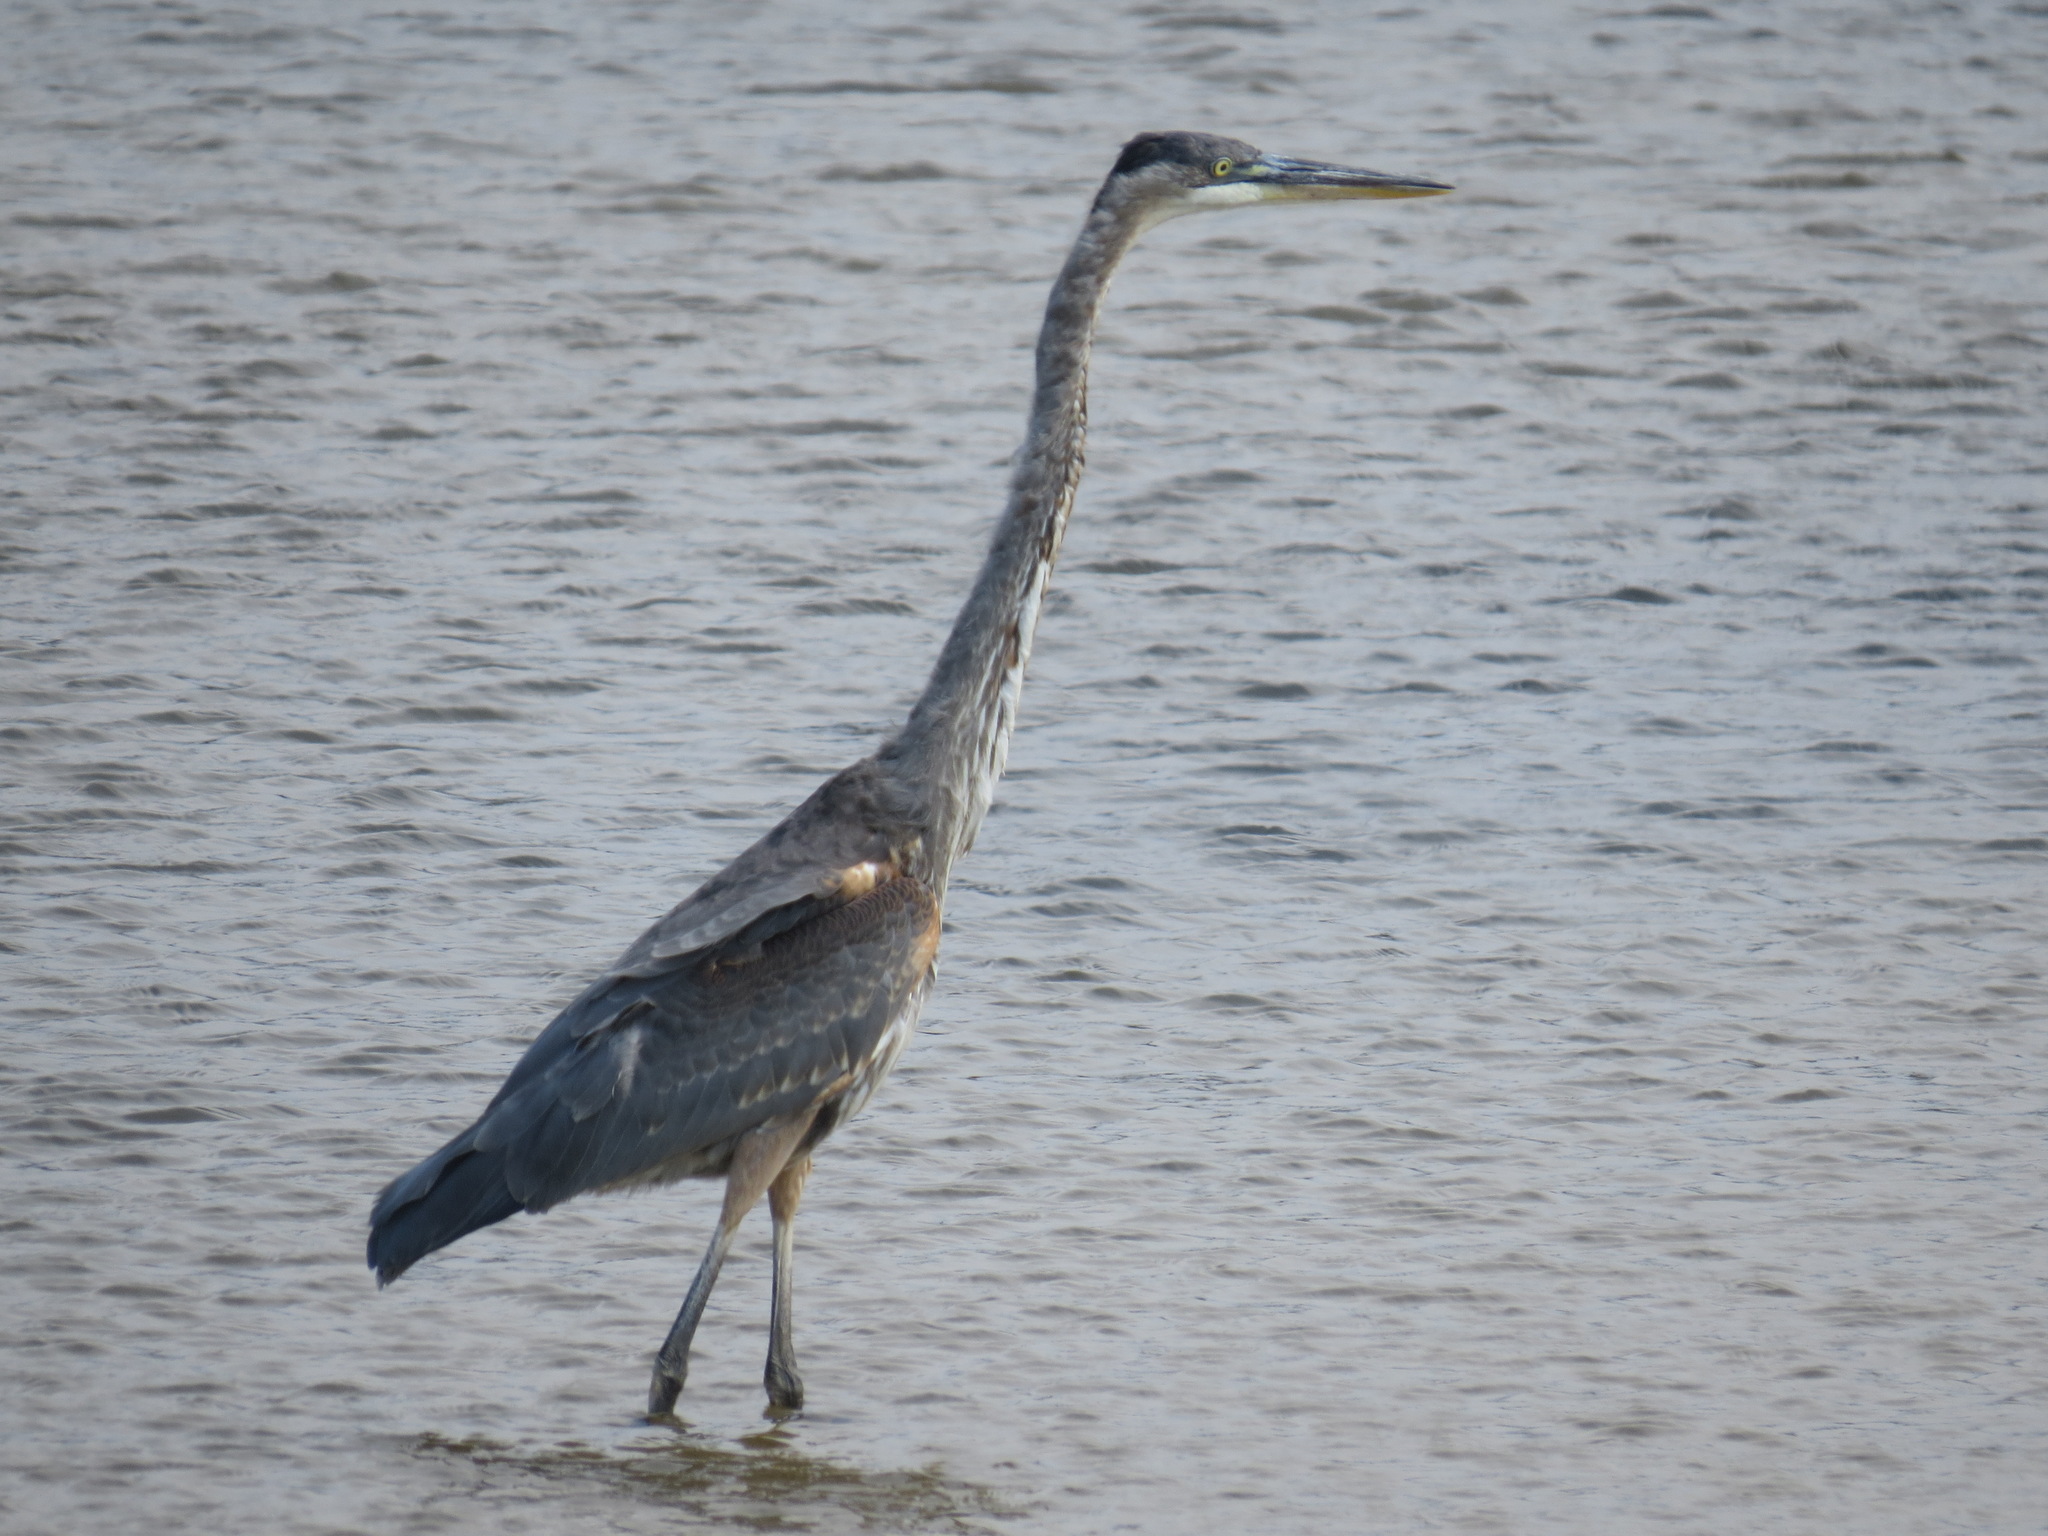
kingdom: Animalia
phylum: Chordata
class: Aves
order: Pelecaniformes
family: Ardeidae
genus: Ardea
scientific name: Ardea herodias
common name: Great blue heron
